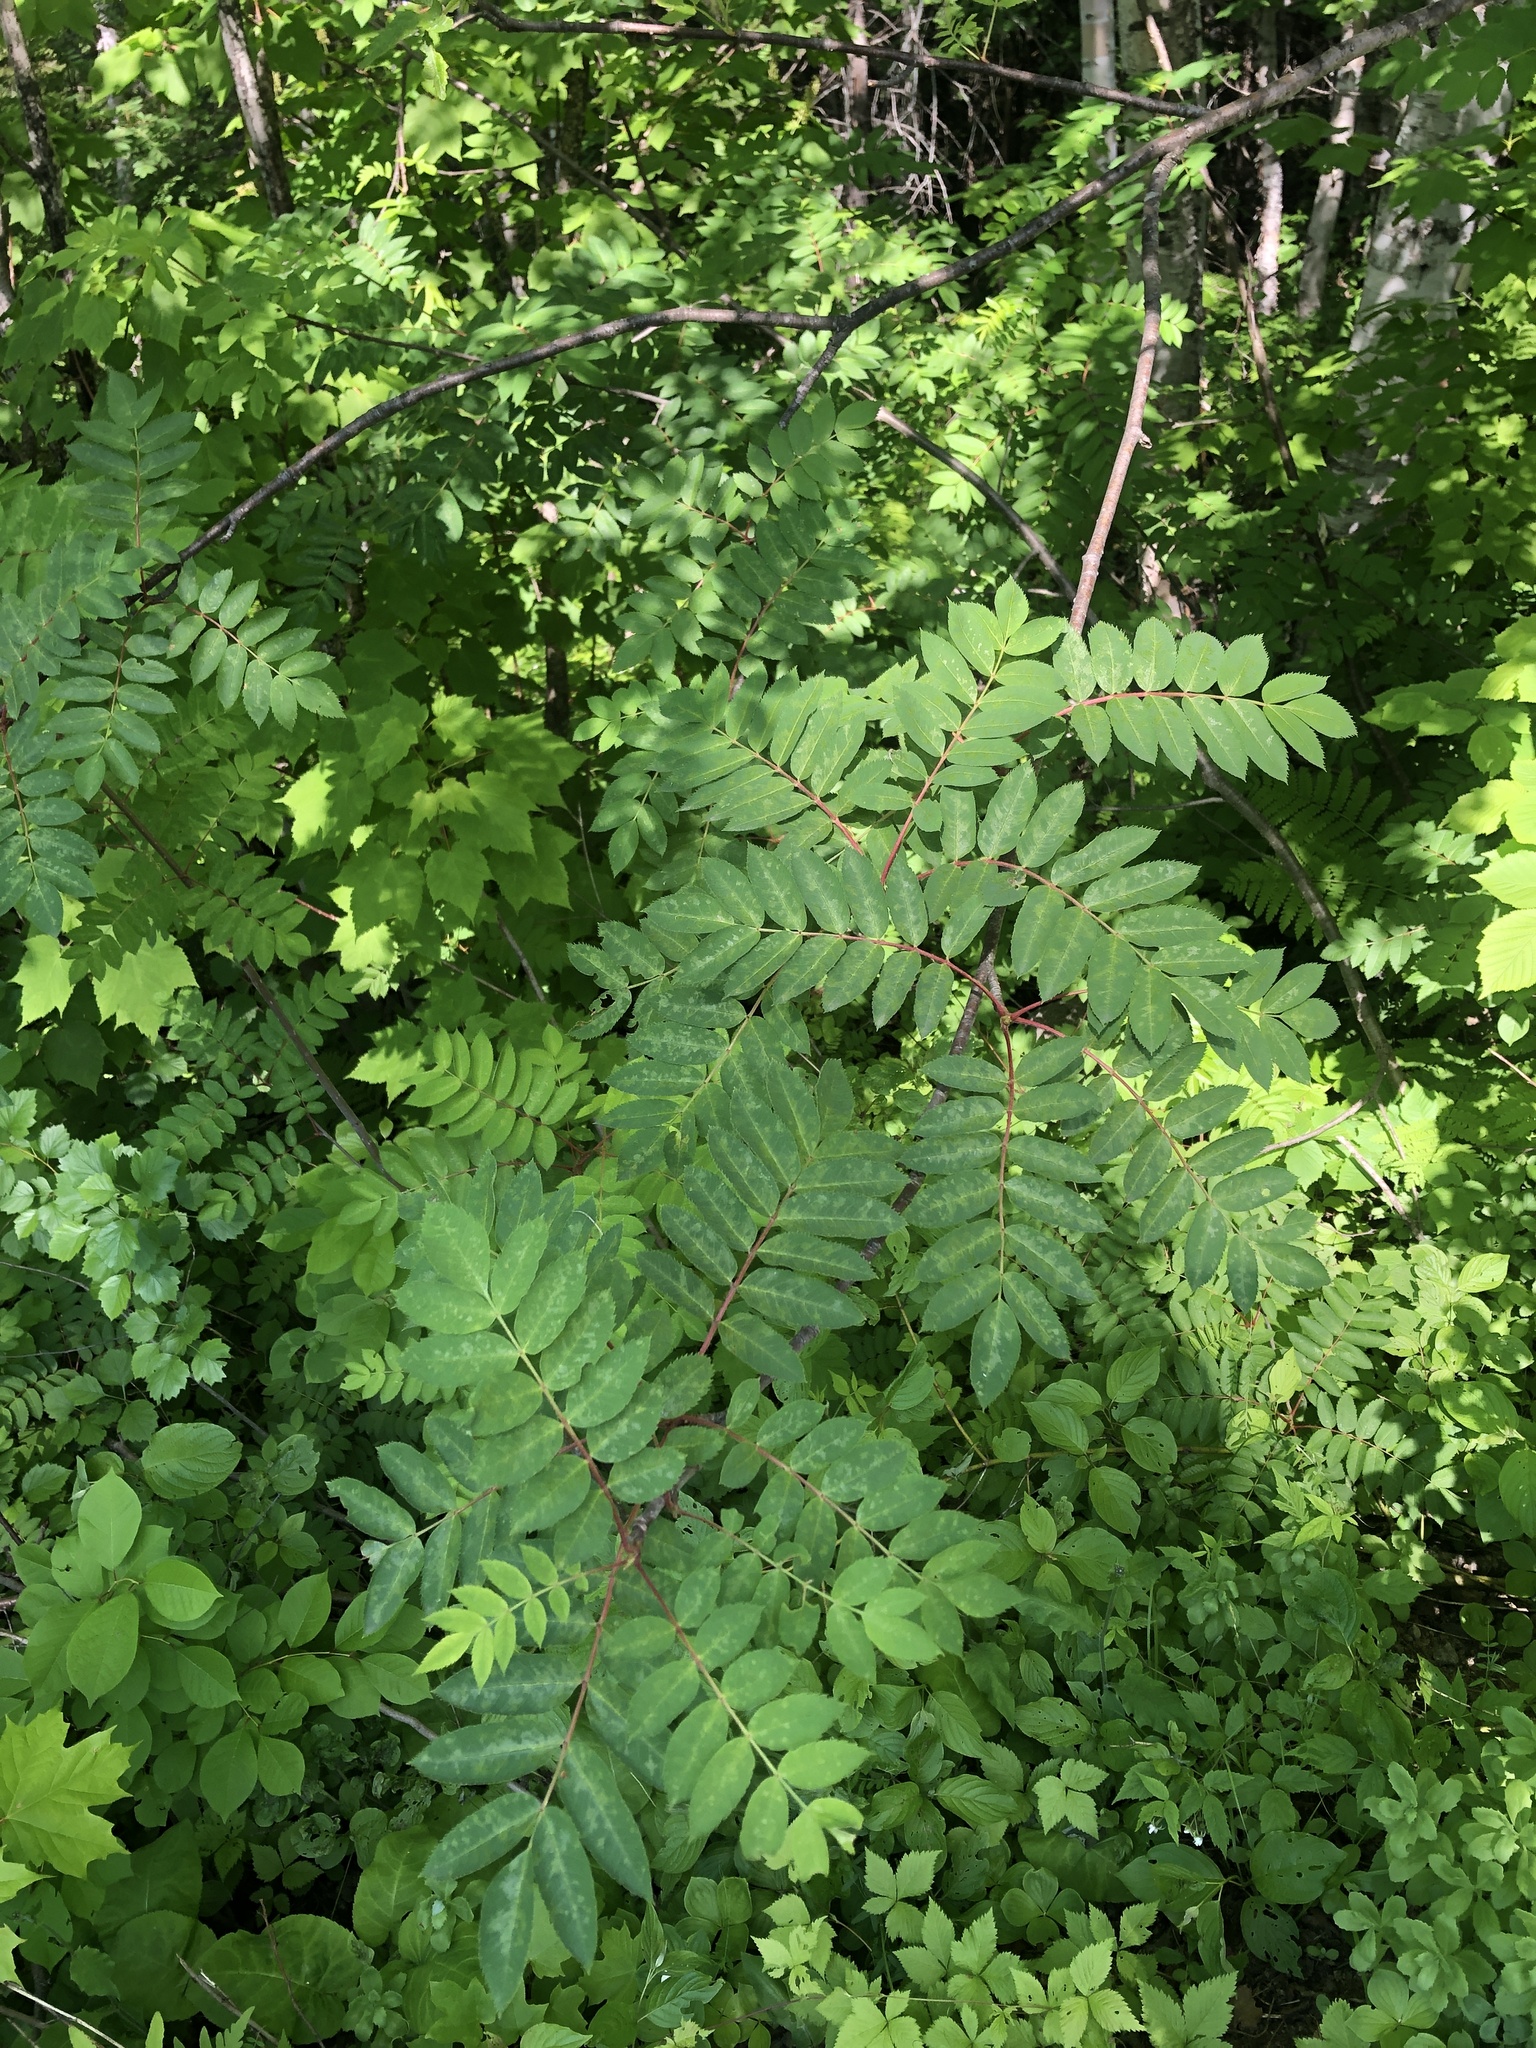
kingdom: Plantae
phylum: Tracheophyta
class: Magnoliopsida
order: Rosales
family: Rosaceae
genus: Sorbus
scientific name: Sorbus aucuparia
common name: Rowan
